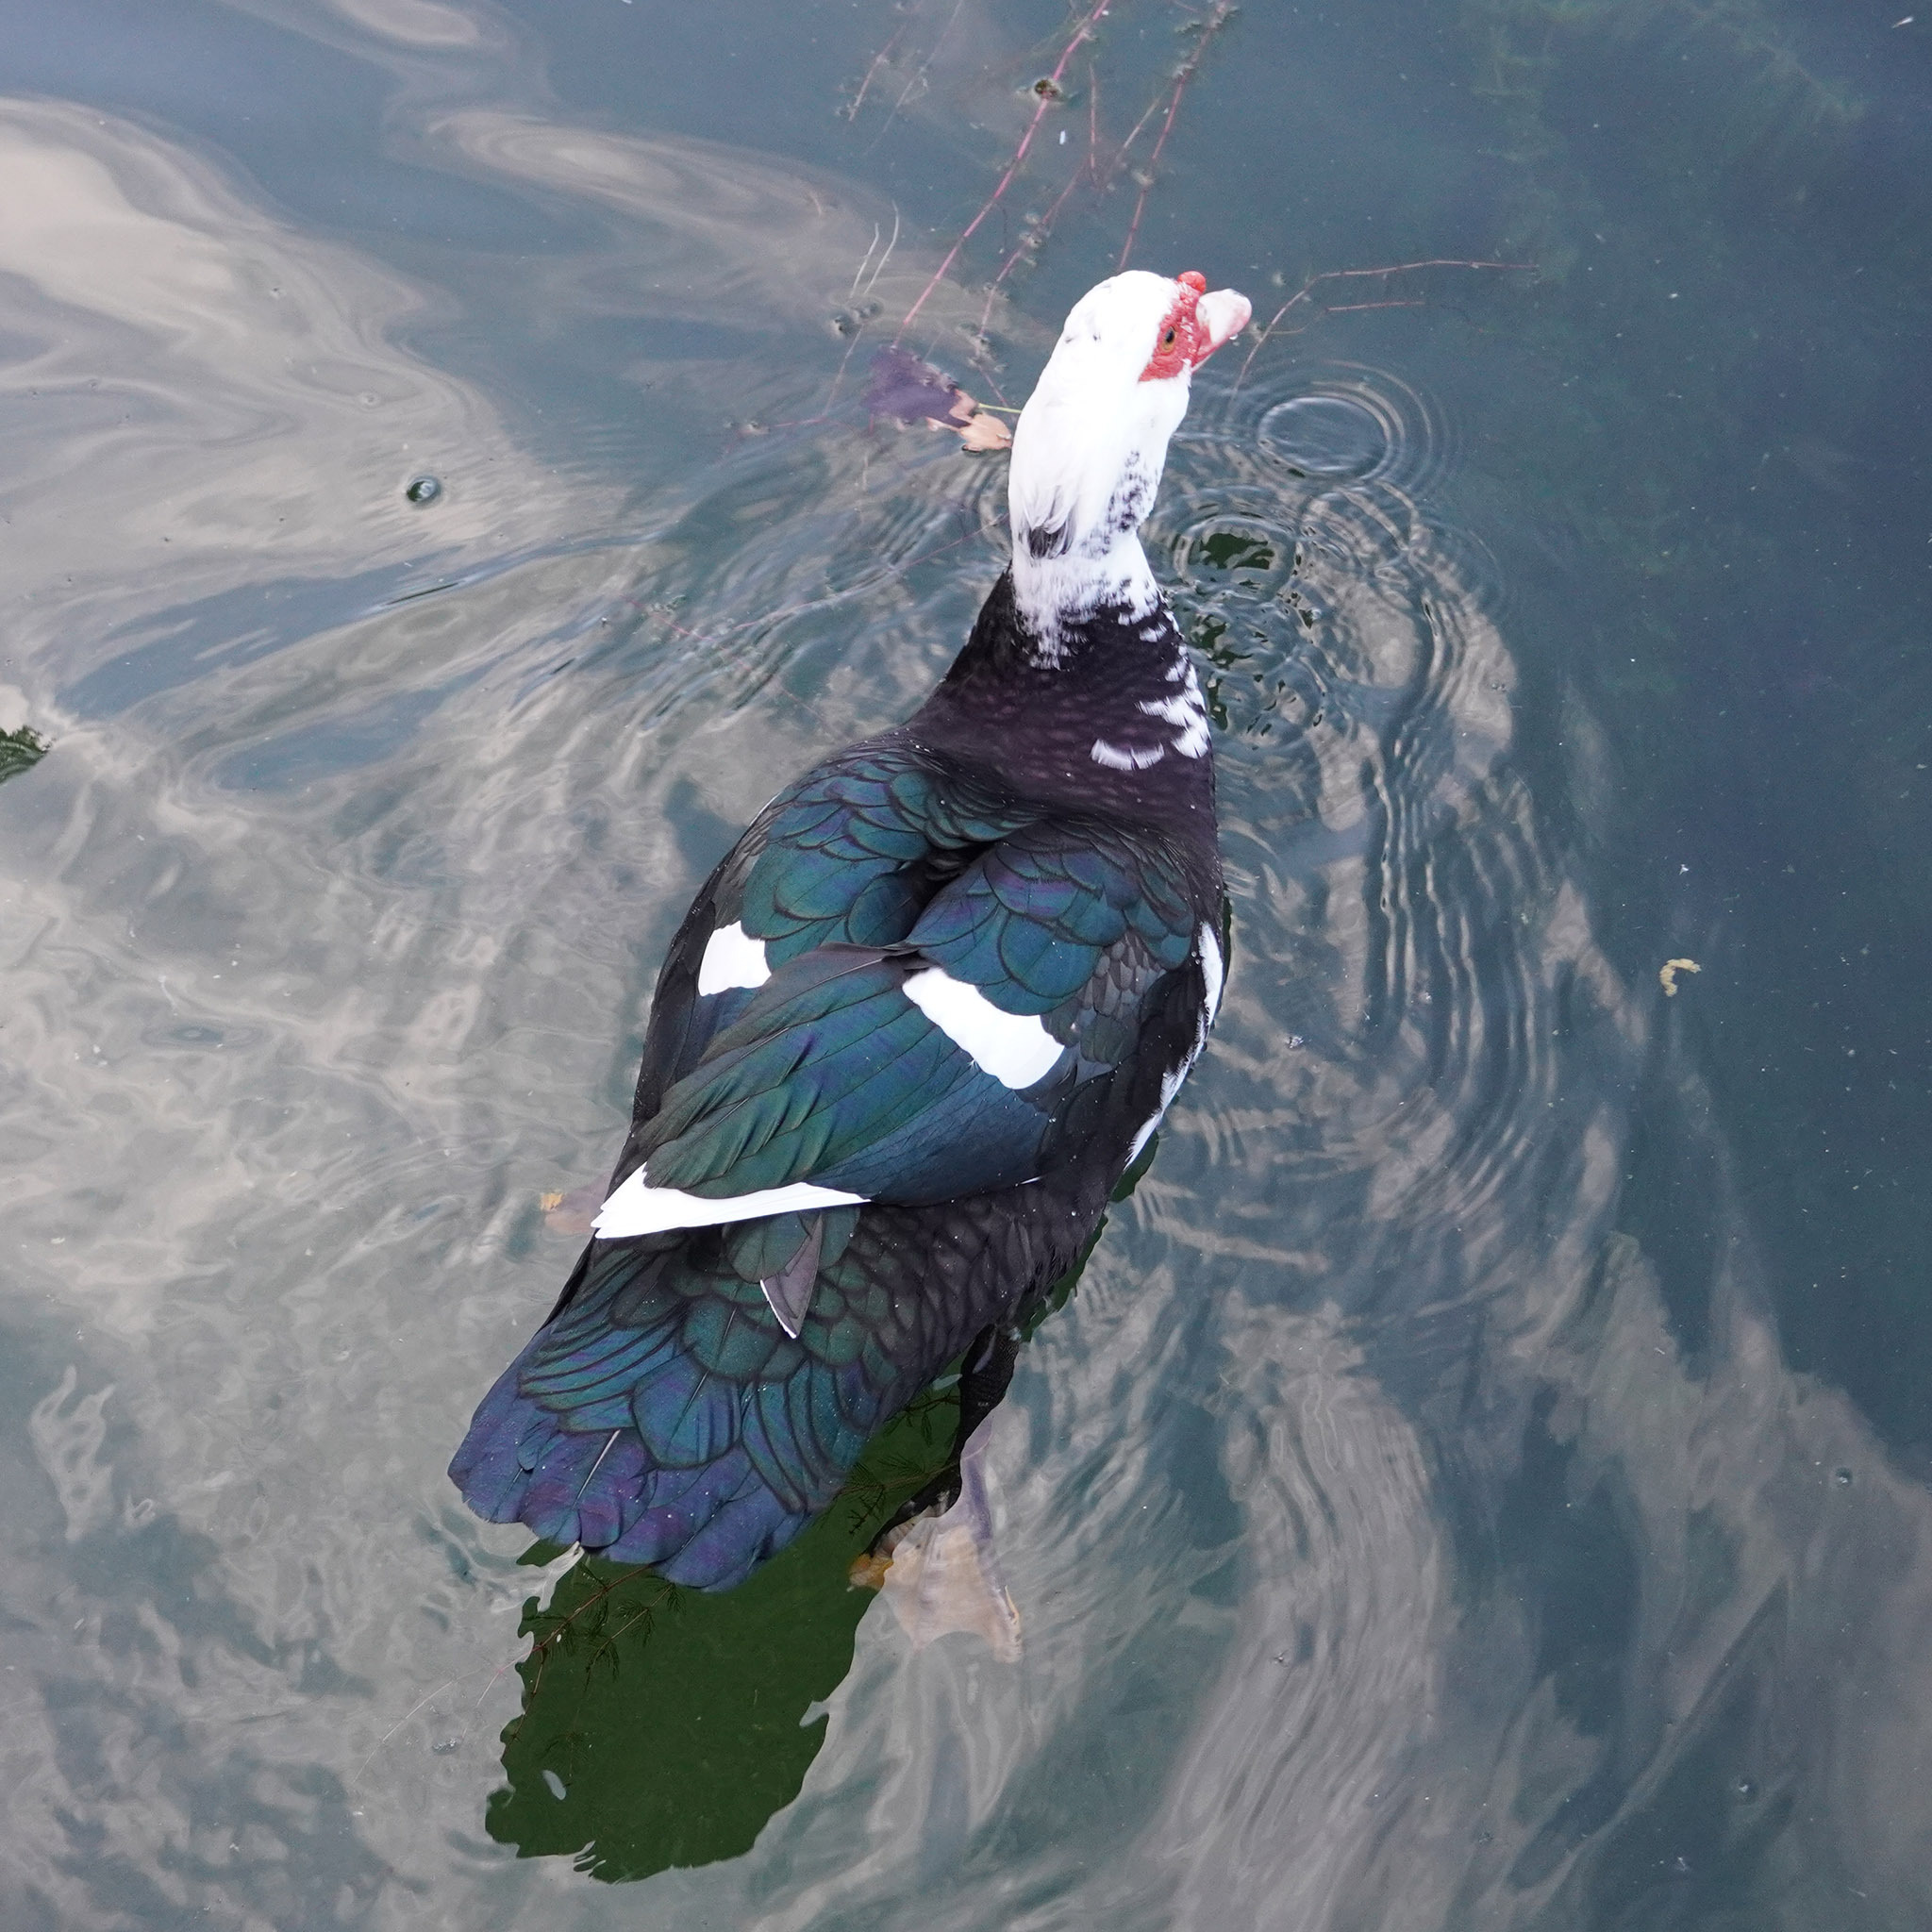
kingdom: Animalia
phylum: Chordata
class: Aves
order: Anseriformes
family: Anatidae
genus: Cairina
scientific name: Cairina moschata
